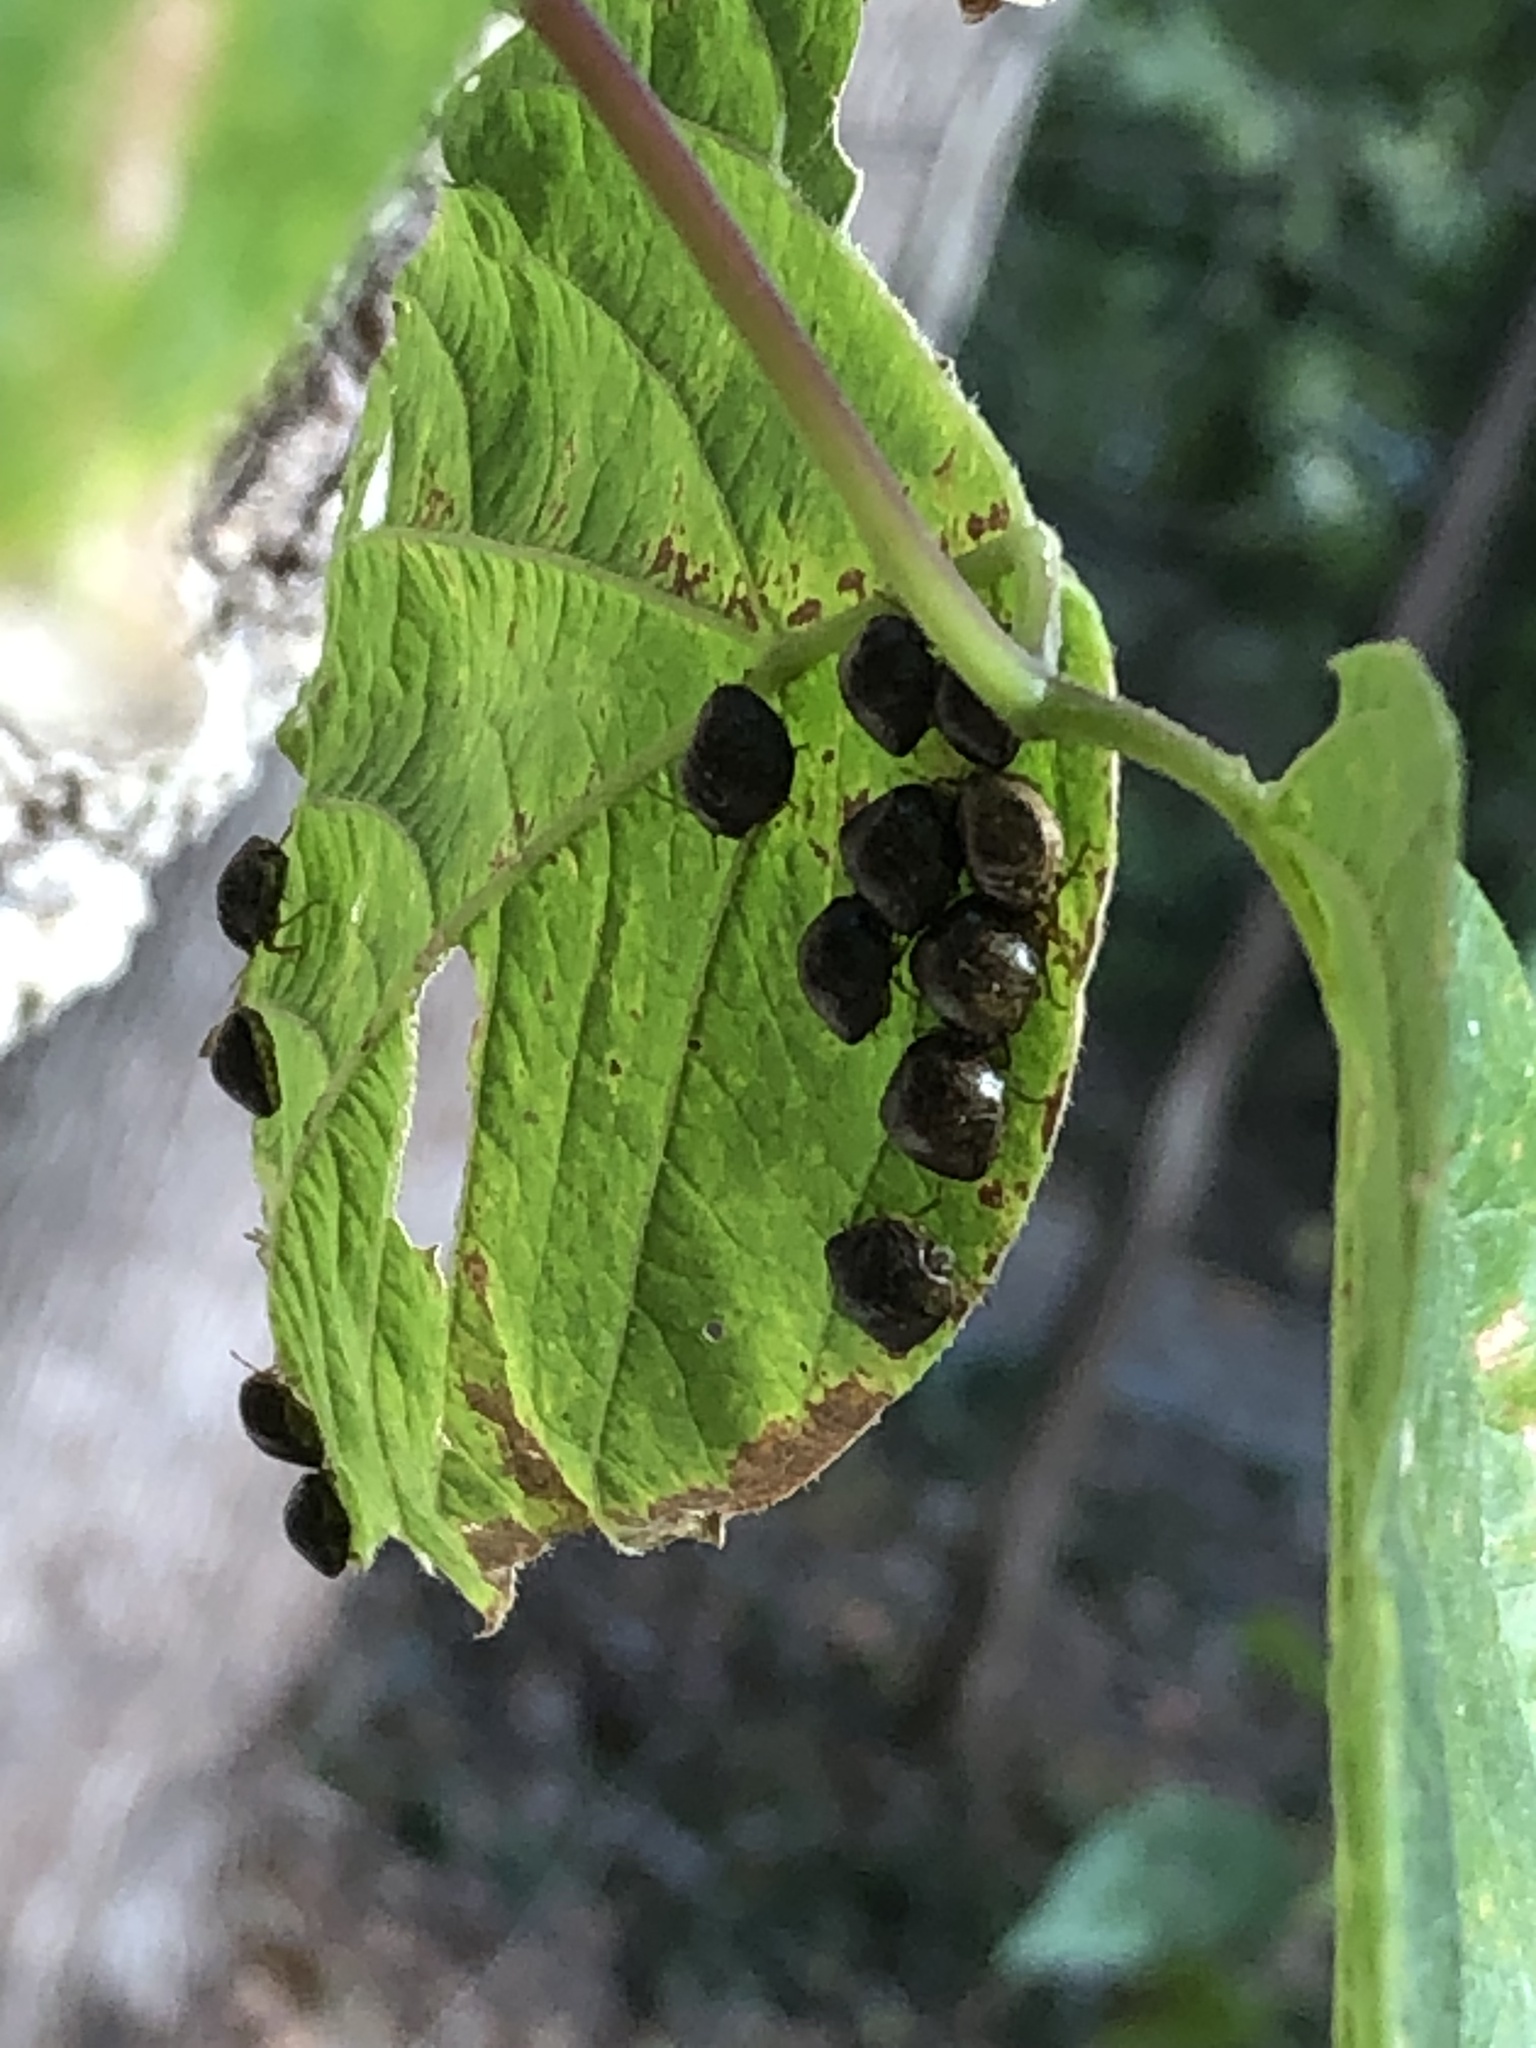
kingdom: Animalia
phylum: Arthropoda
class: Insecta
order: Hemiptera
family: Plataspidae
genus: Megacopta
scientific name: Megacopta cribraria
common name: Bean plataspid
